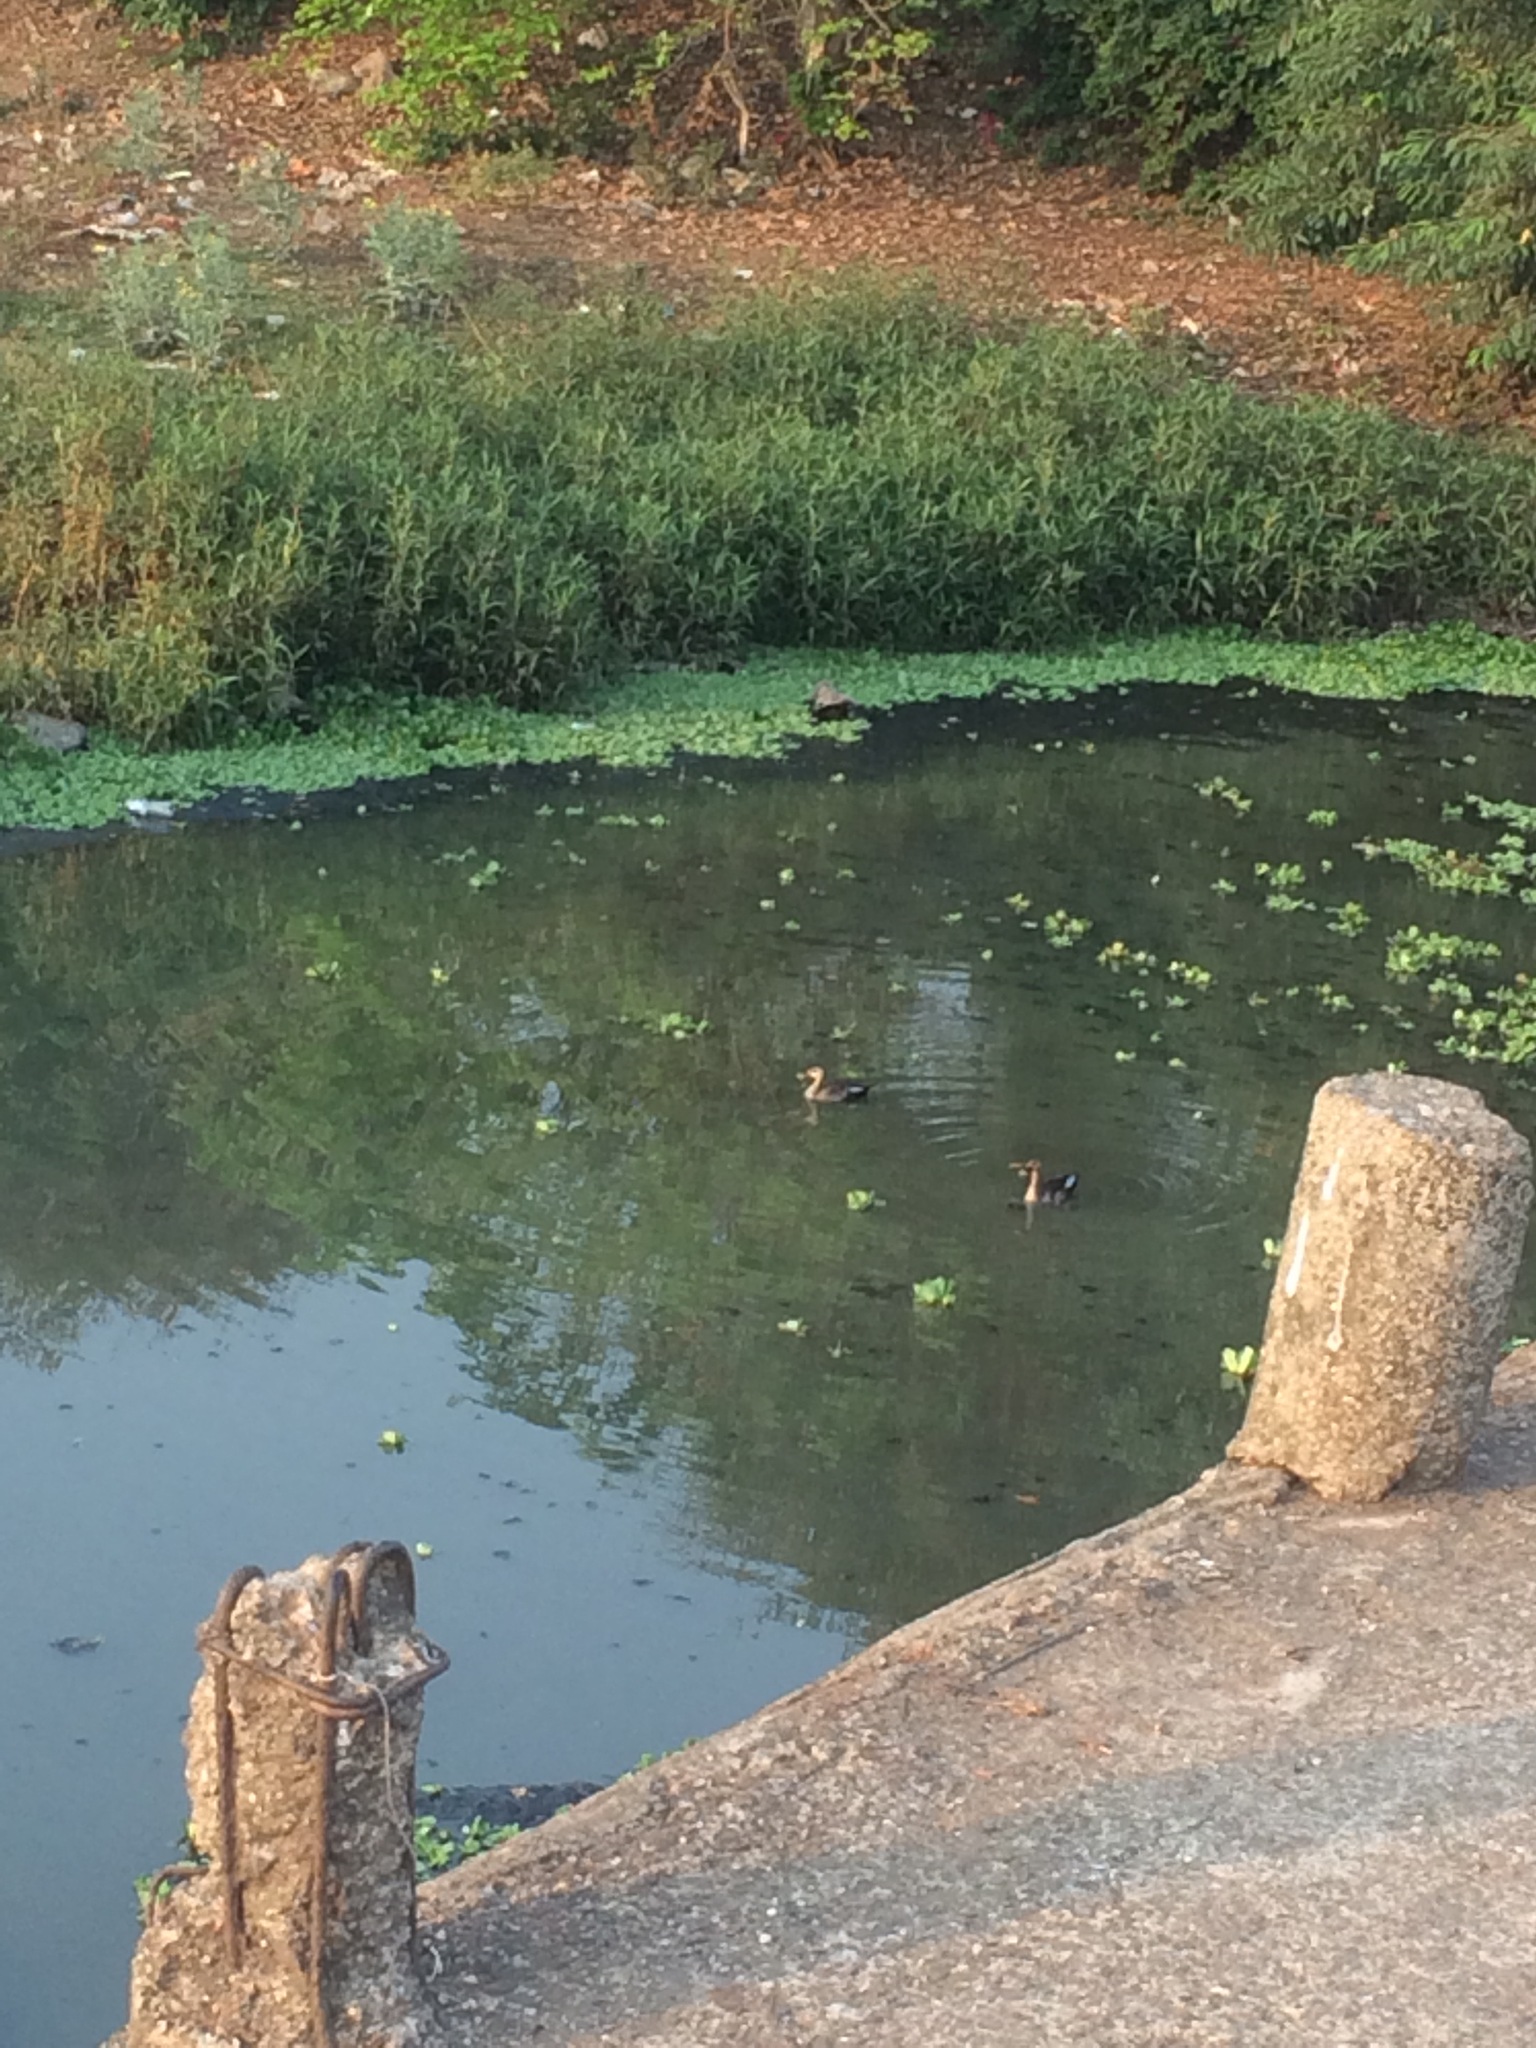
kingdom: Animalia
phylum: Chordata
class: Aves
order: Anseriformes
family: Anatidae
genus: Anas
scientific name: Anas poecilorhyncha
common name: Indian spot-billed duck
